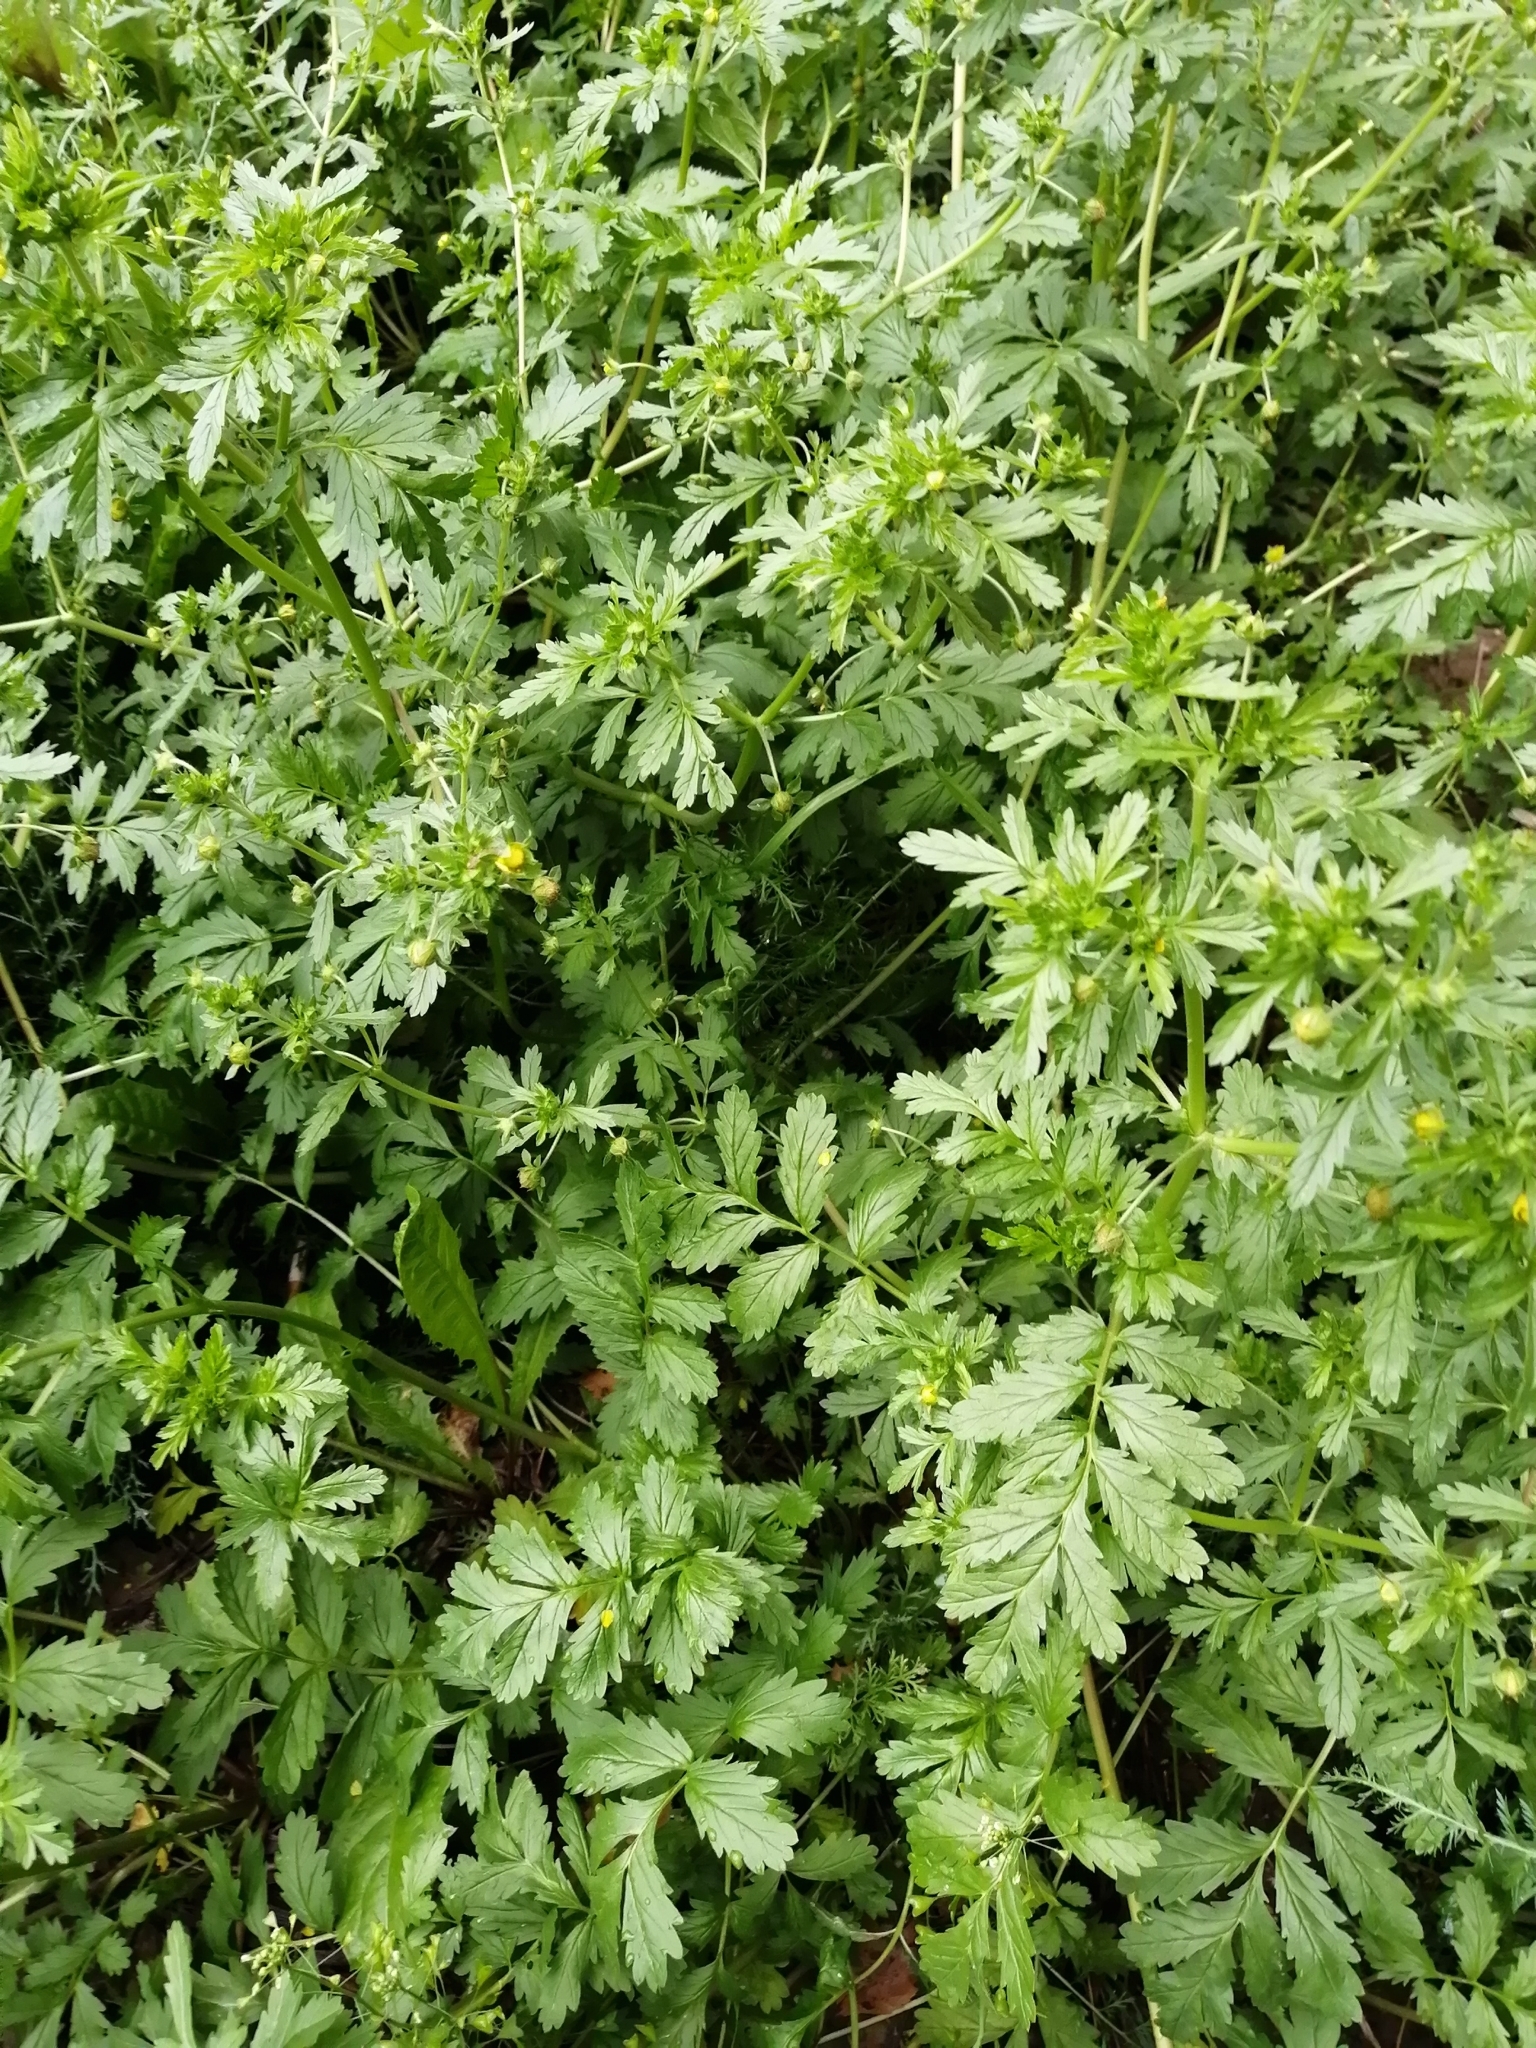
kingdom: Plantae
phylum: Tracheophyta
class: Magnoliopsida
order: Rosales
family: Rosaceae
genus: Potentilla
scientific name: Potentilla supina
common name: Prostrate cinquefoil
